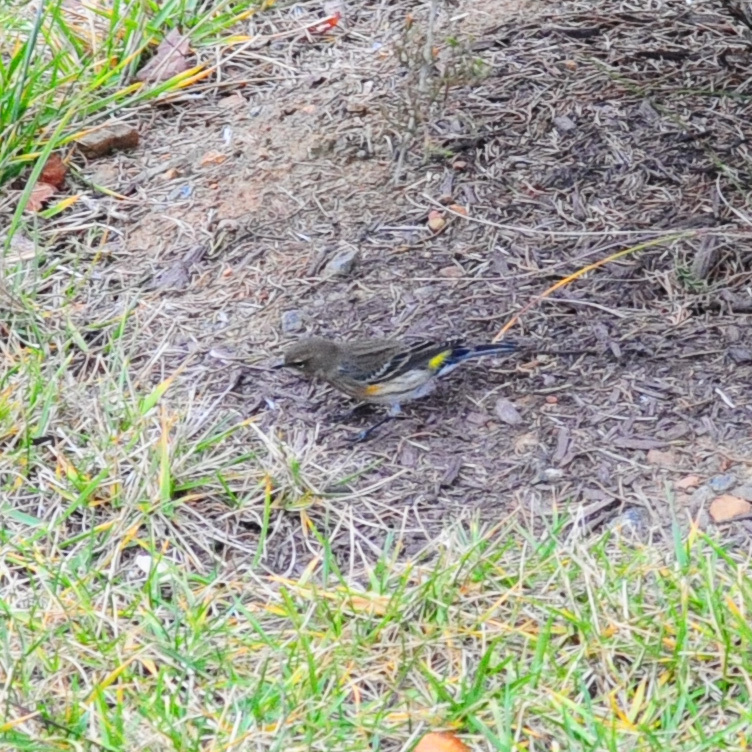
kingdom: Animalia
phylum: Chordata
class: Aves
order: Passeriformes
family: Parulidae
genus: Setophaga
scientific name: Setophaga coronata
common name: Myrtle warbler
